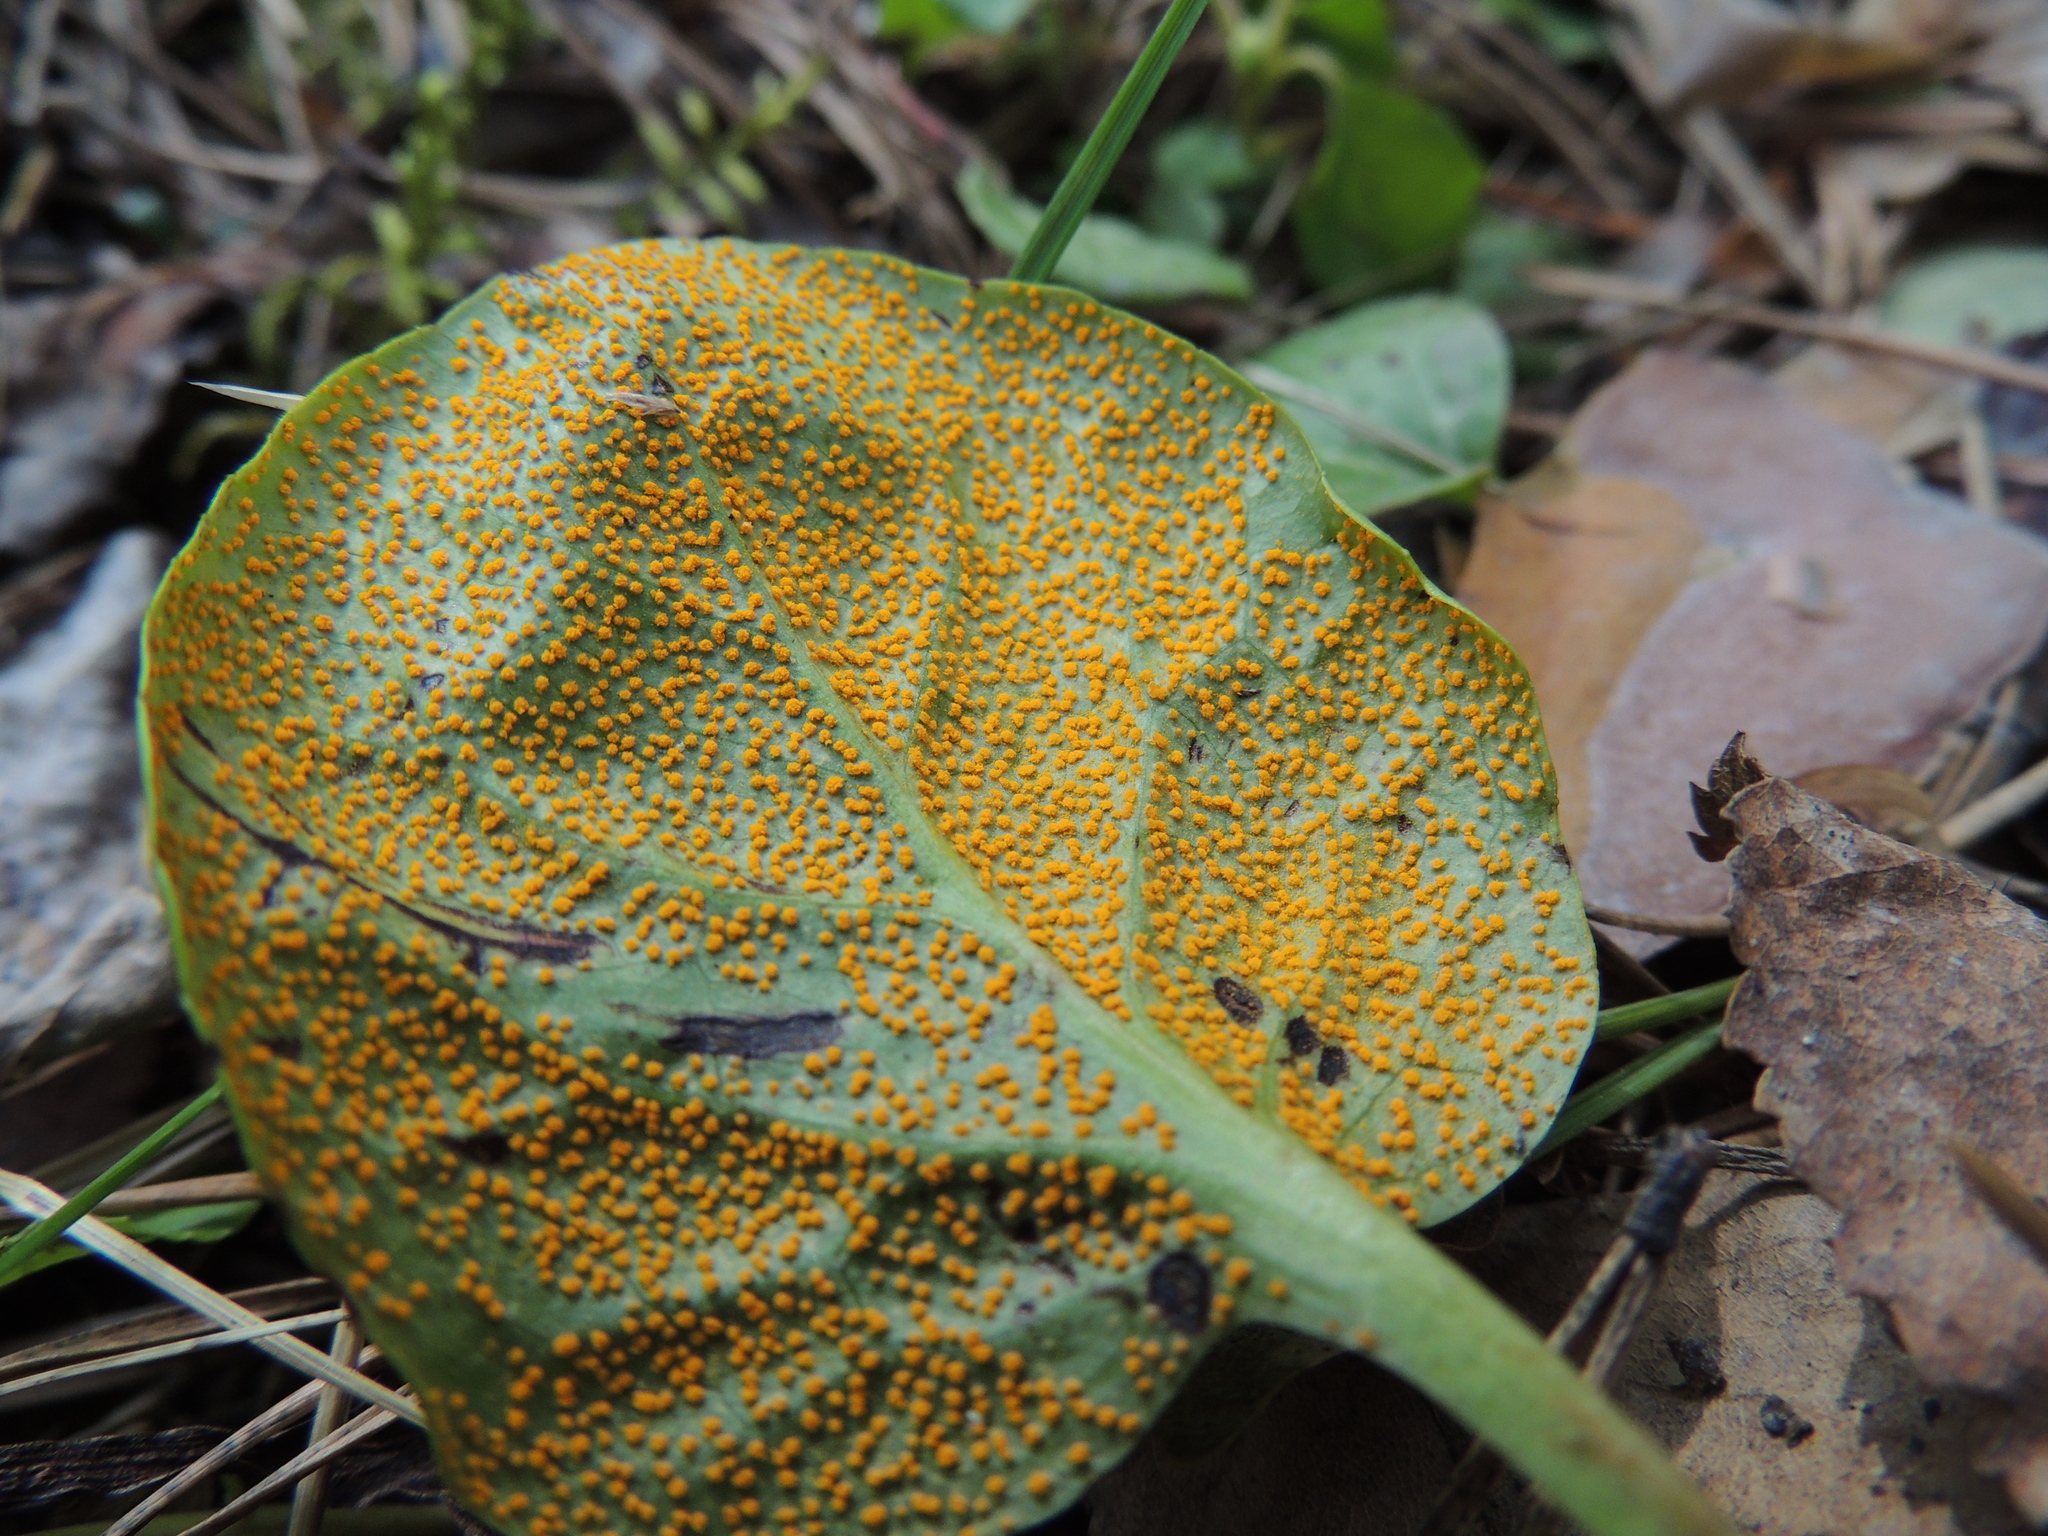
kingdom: Fungi
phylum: Basidiomycota
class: Pucciniomycetes
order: Pucciniales
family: Coleosporiaceae
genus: Rossmanomyces
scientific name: Rossmanomyces pyrolae
